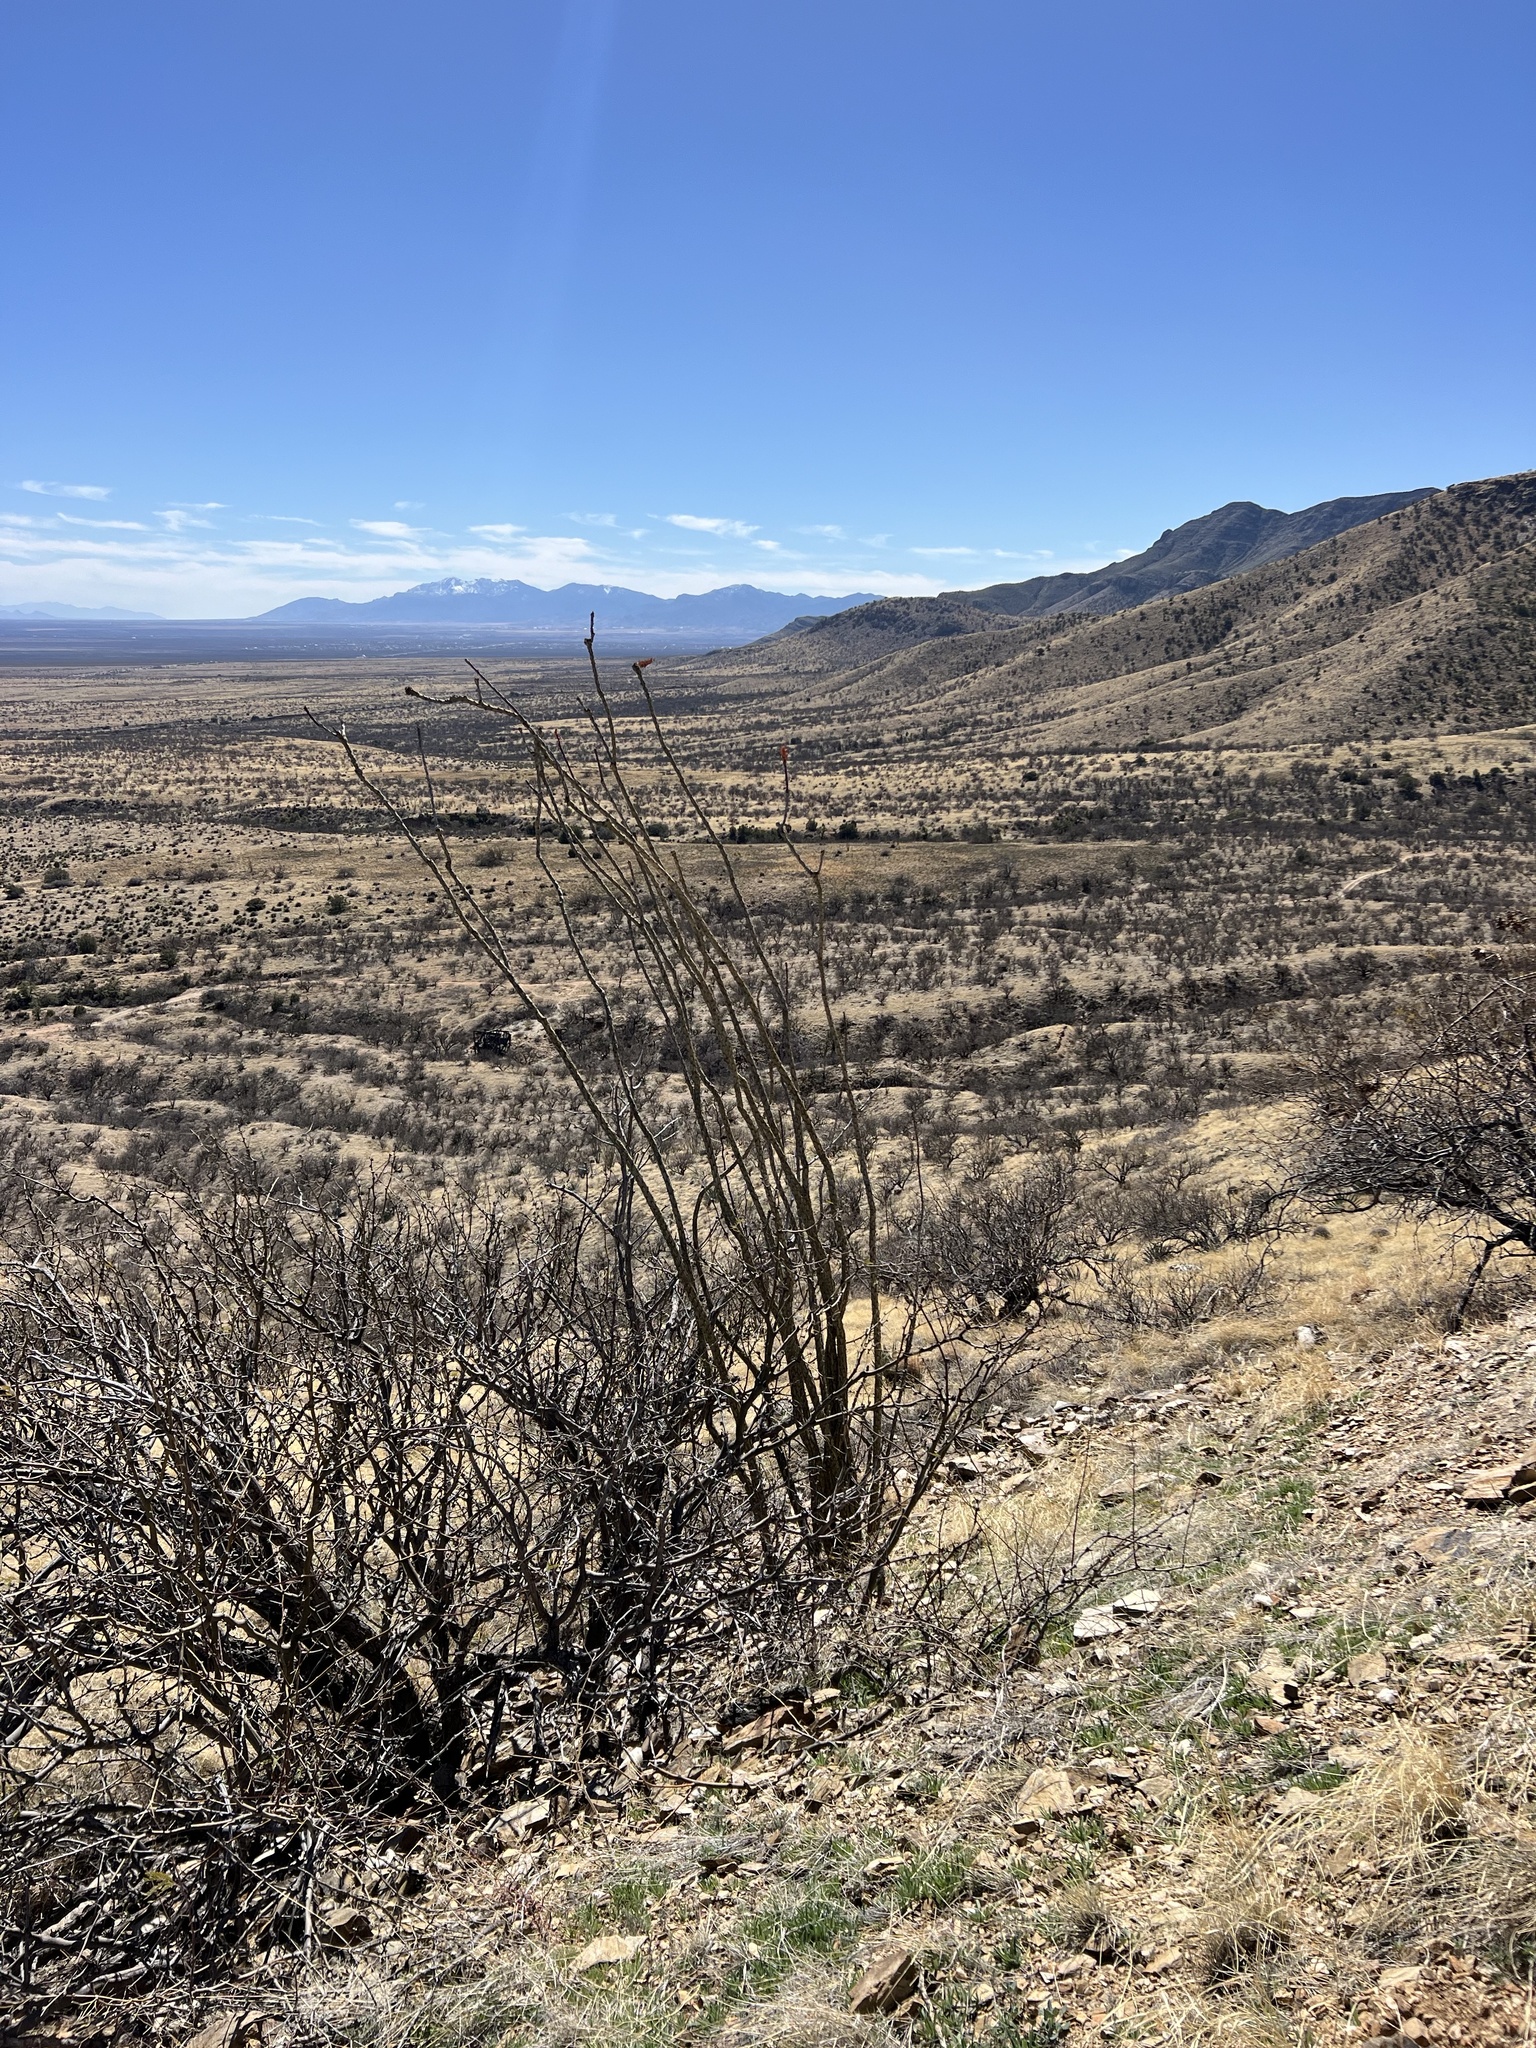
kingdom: Plantae
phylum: Tracheophyta
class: Magnoliopsida
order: Ericales
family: Fouquieriaceae
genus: Fouquieria
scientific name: Fouquieria splendens
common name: Vine-cactus
